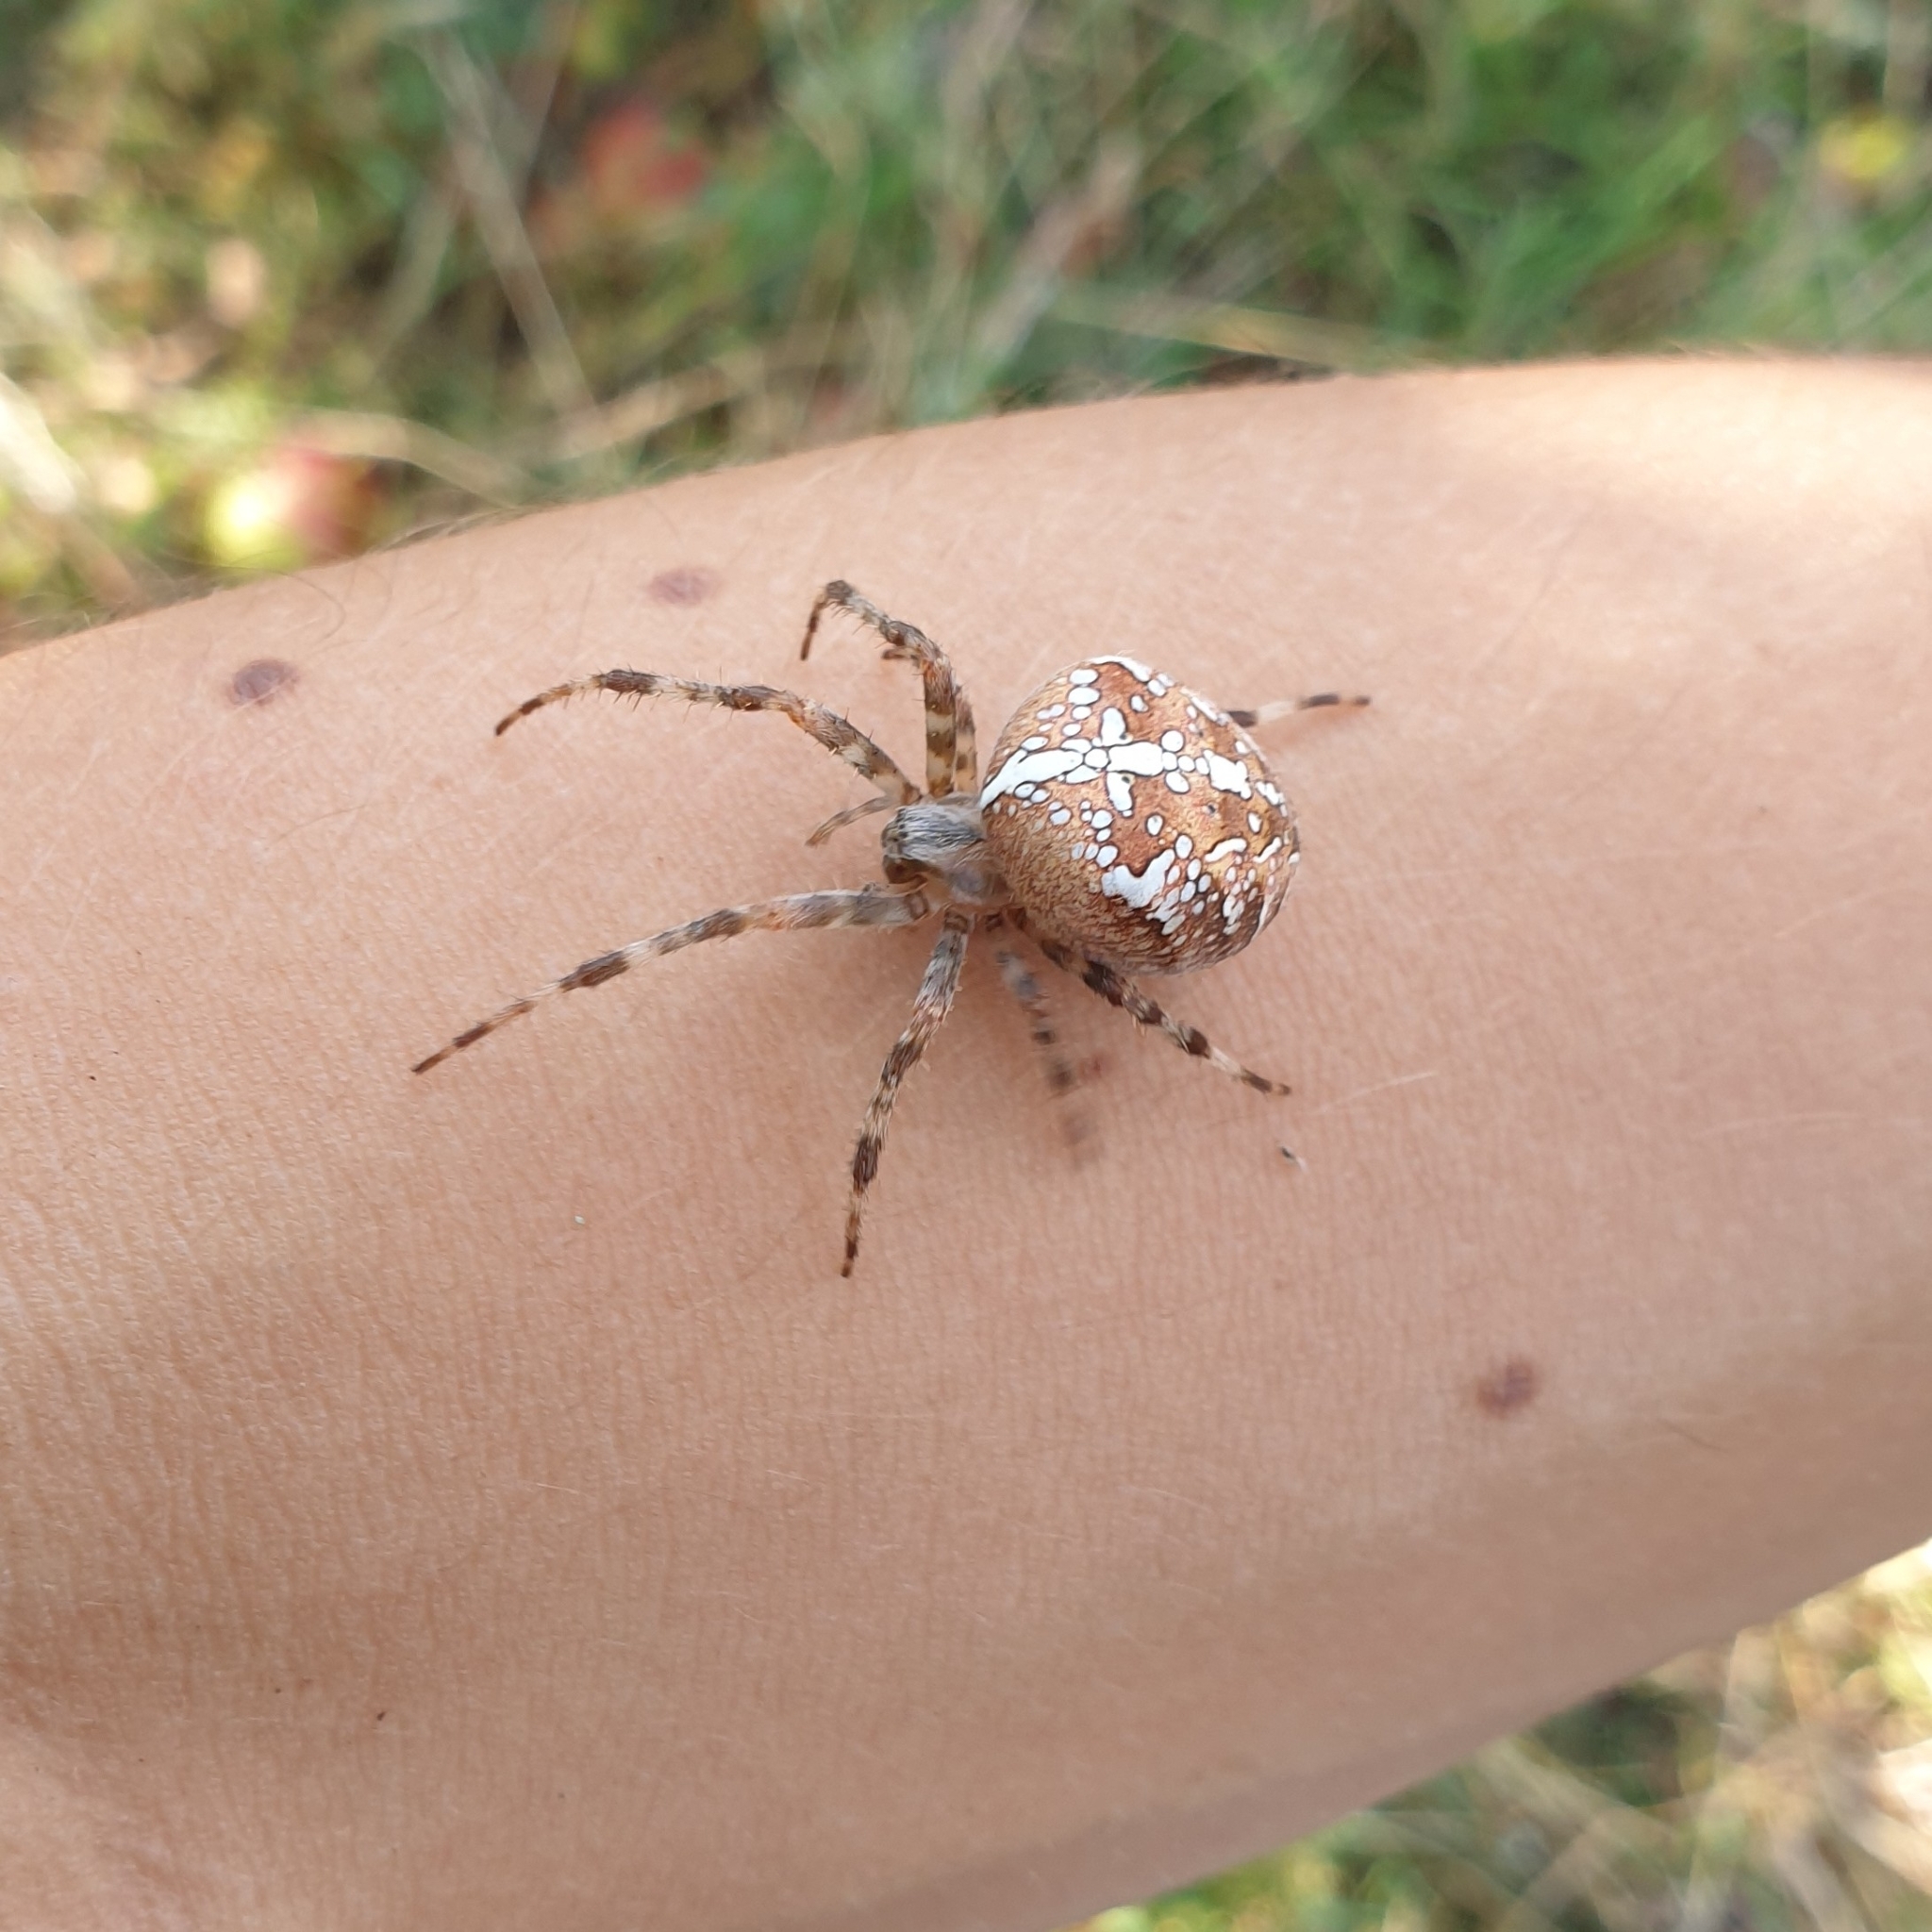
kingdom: Animalia
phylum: Arthropoda
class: Arachnida
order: Araneae
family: Araneidae
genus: Araneus
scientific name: Araneus diadematus
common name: Cross orbweaver
